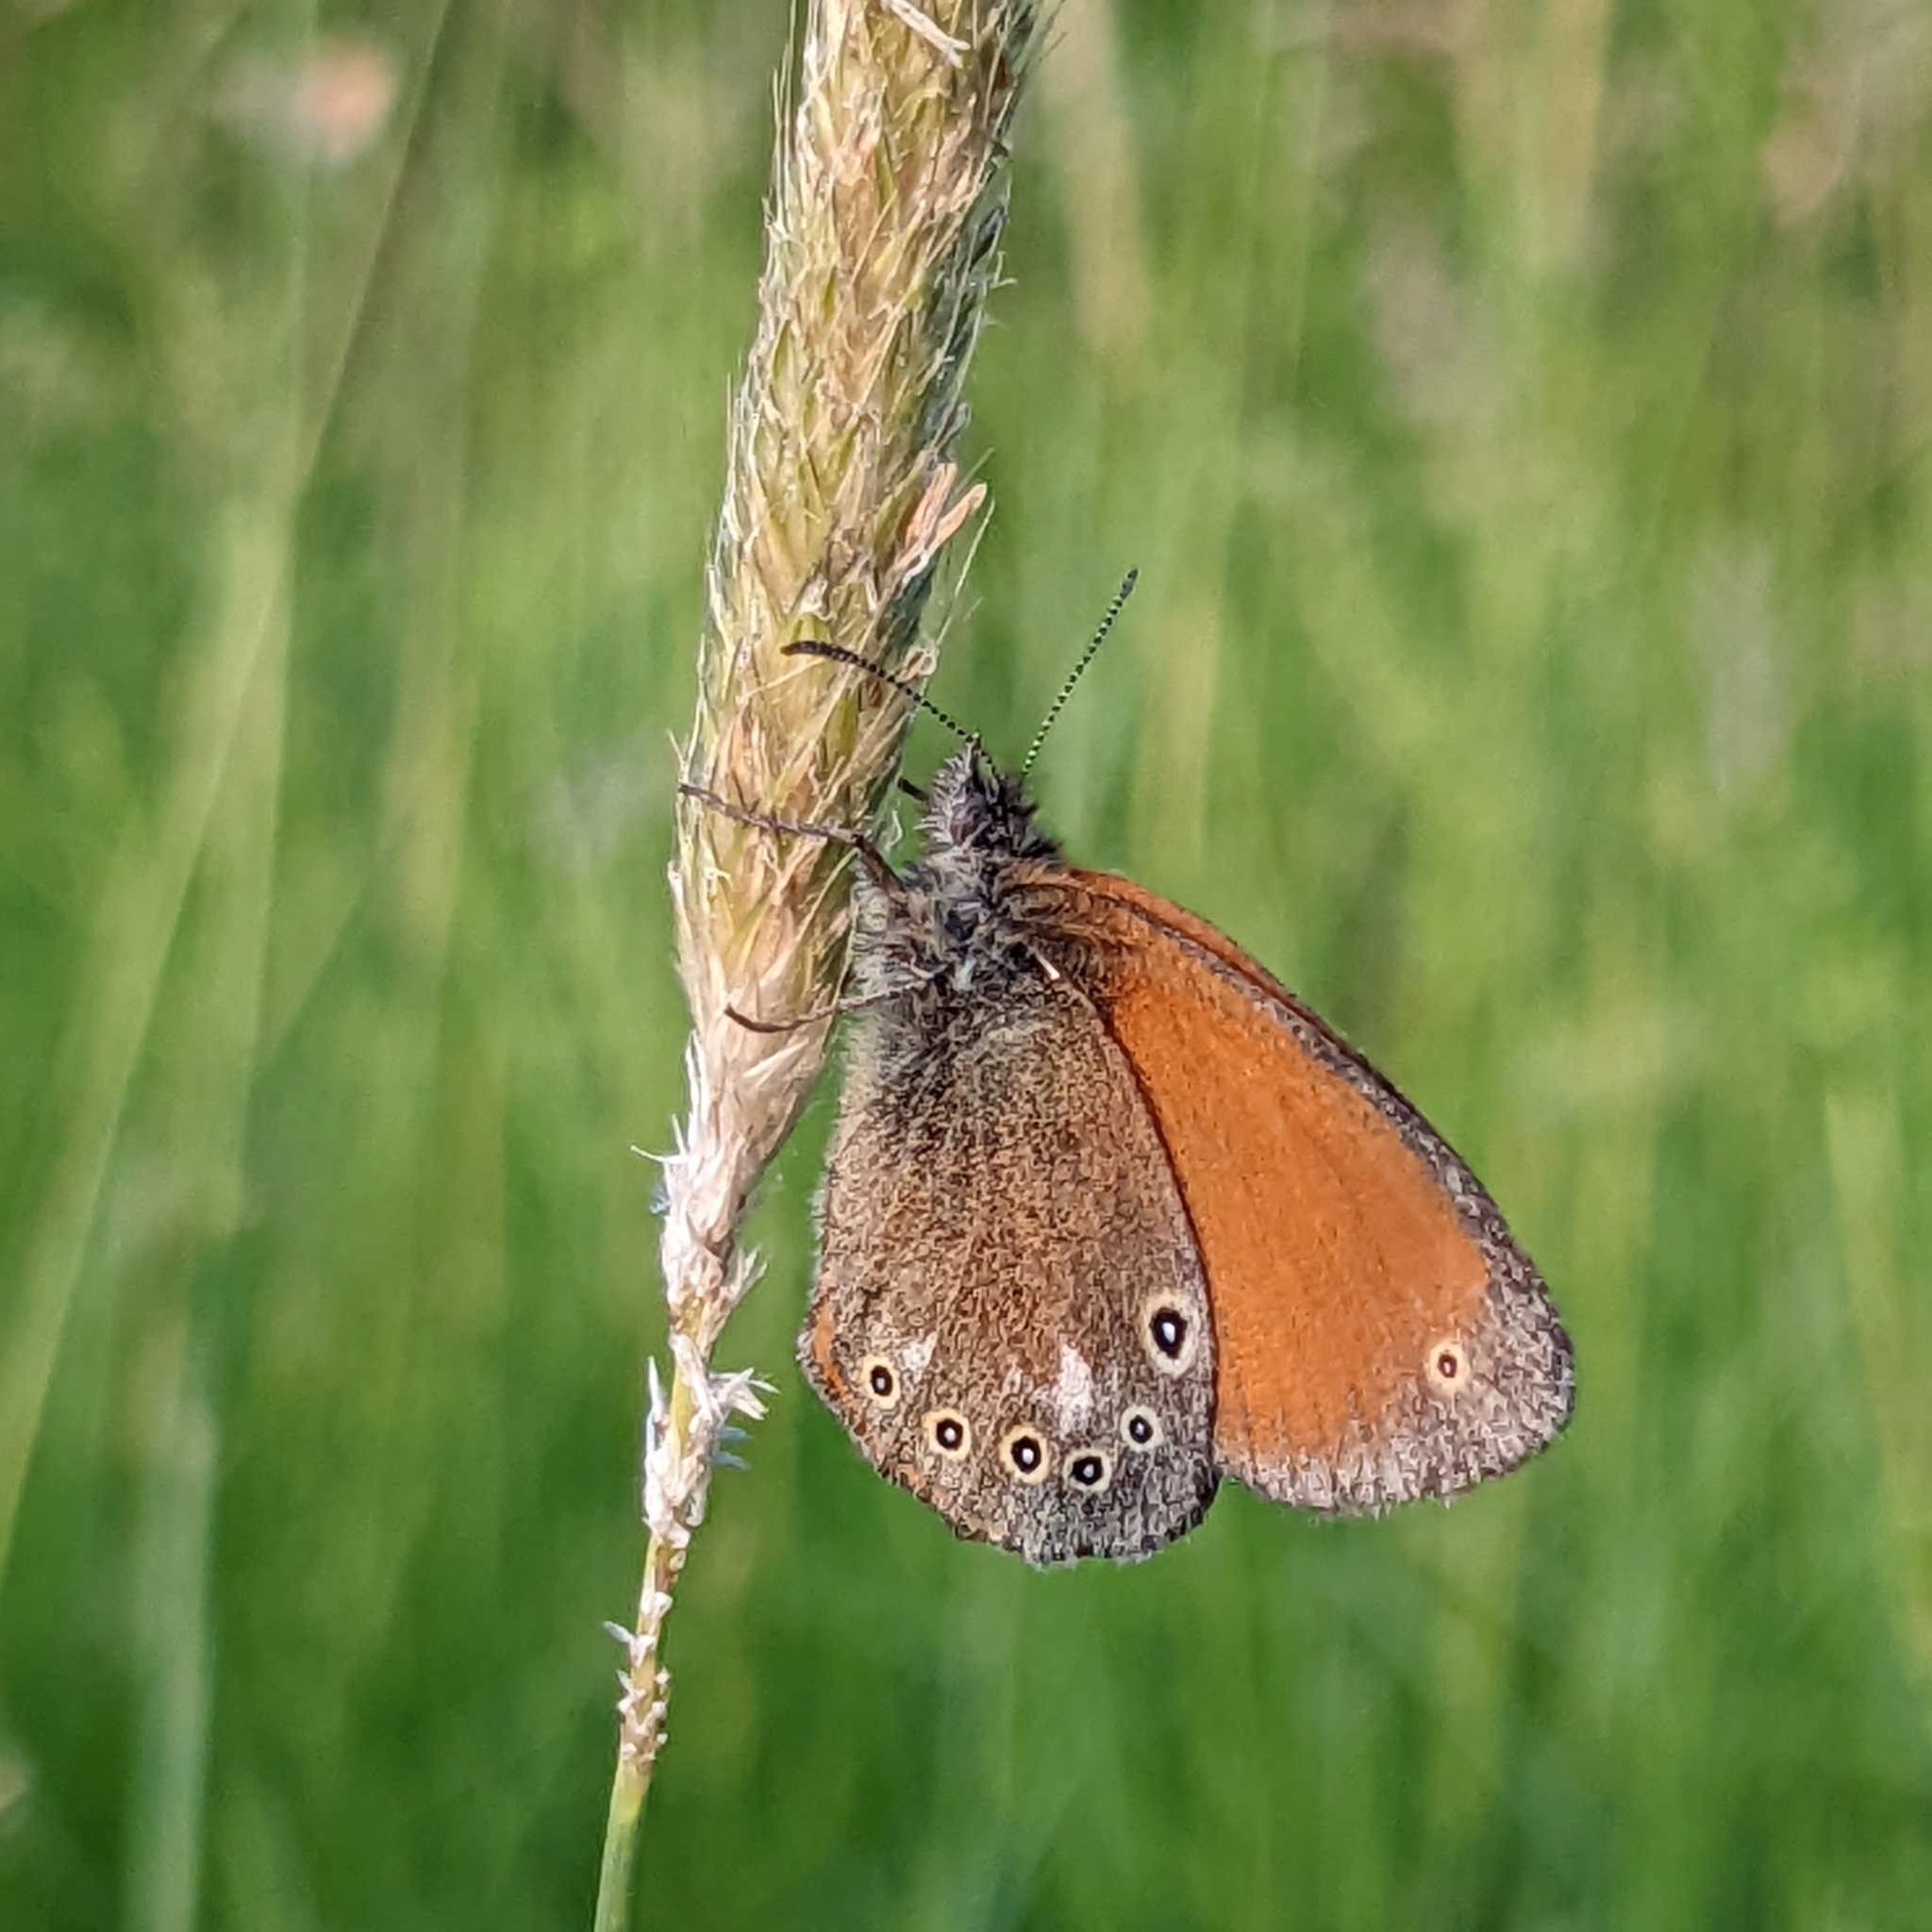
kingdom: Animalia
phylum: Arthropoda
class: Insecta
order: Lepidoptera
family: Nymphalidae
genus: Coenonympha
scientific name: Coenonympha iphis
